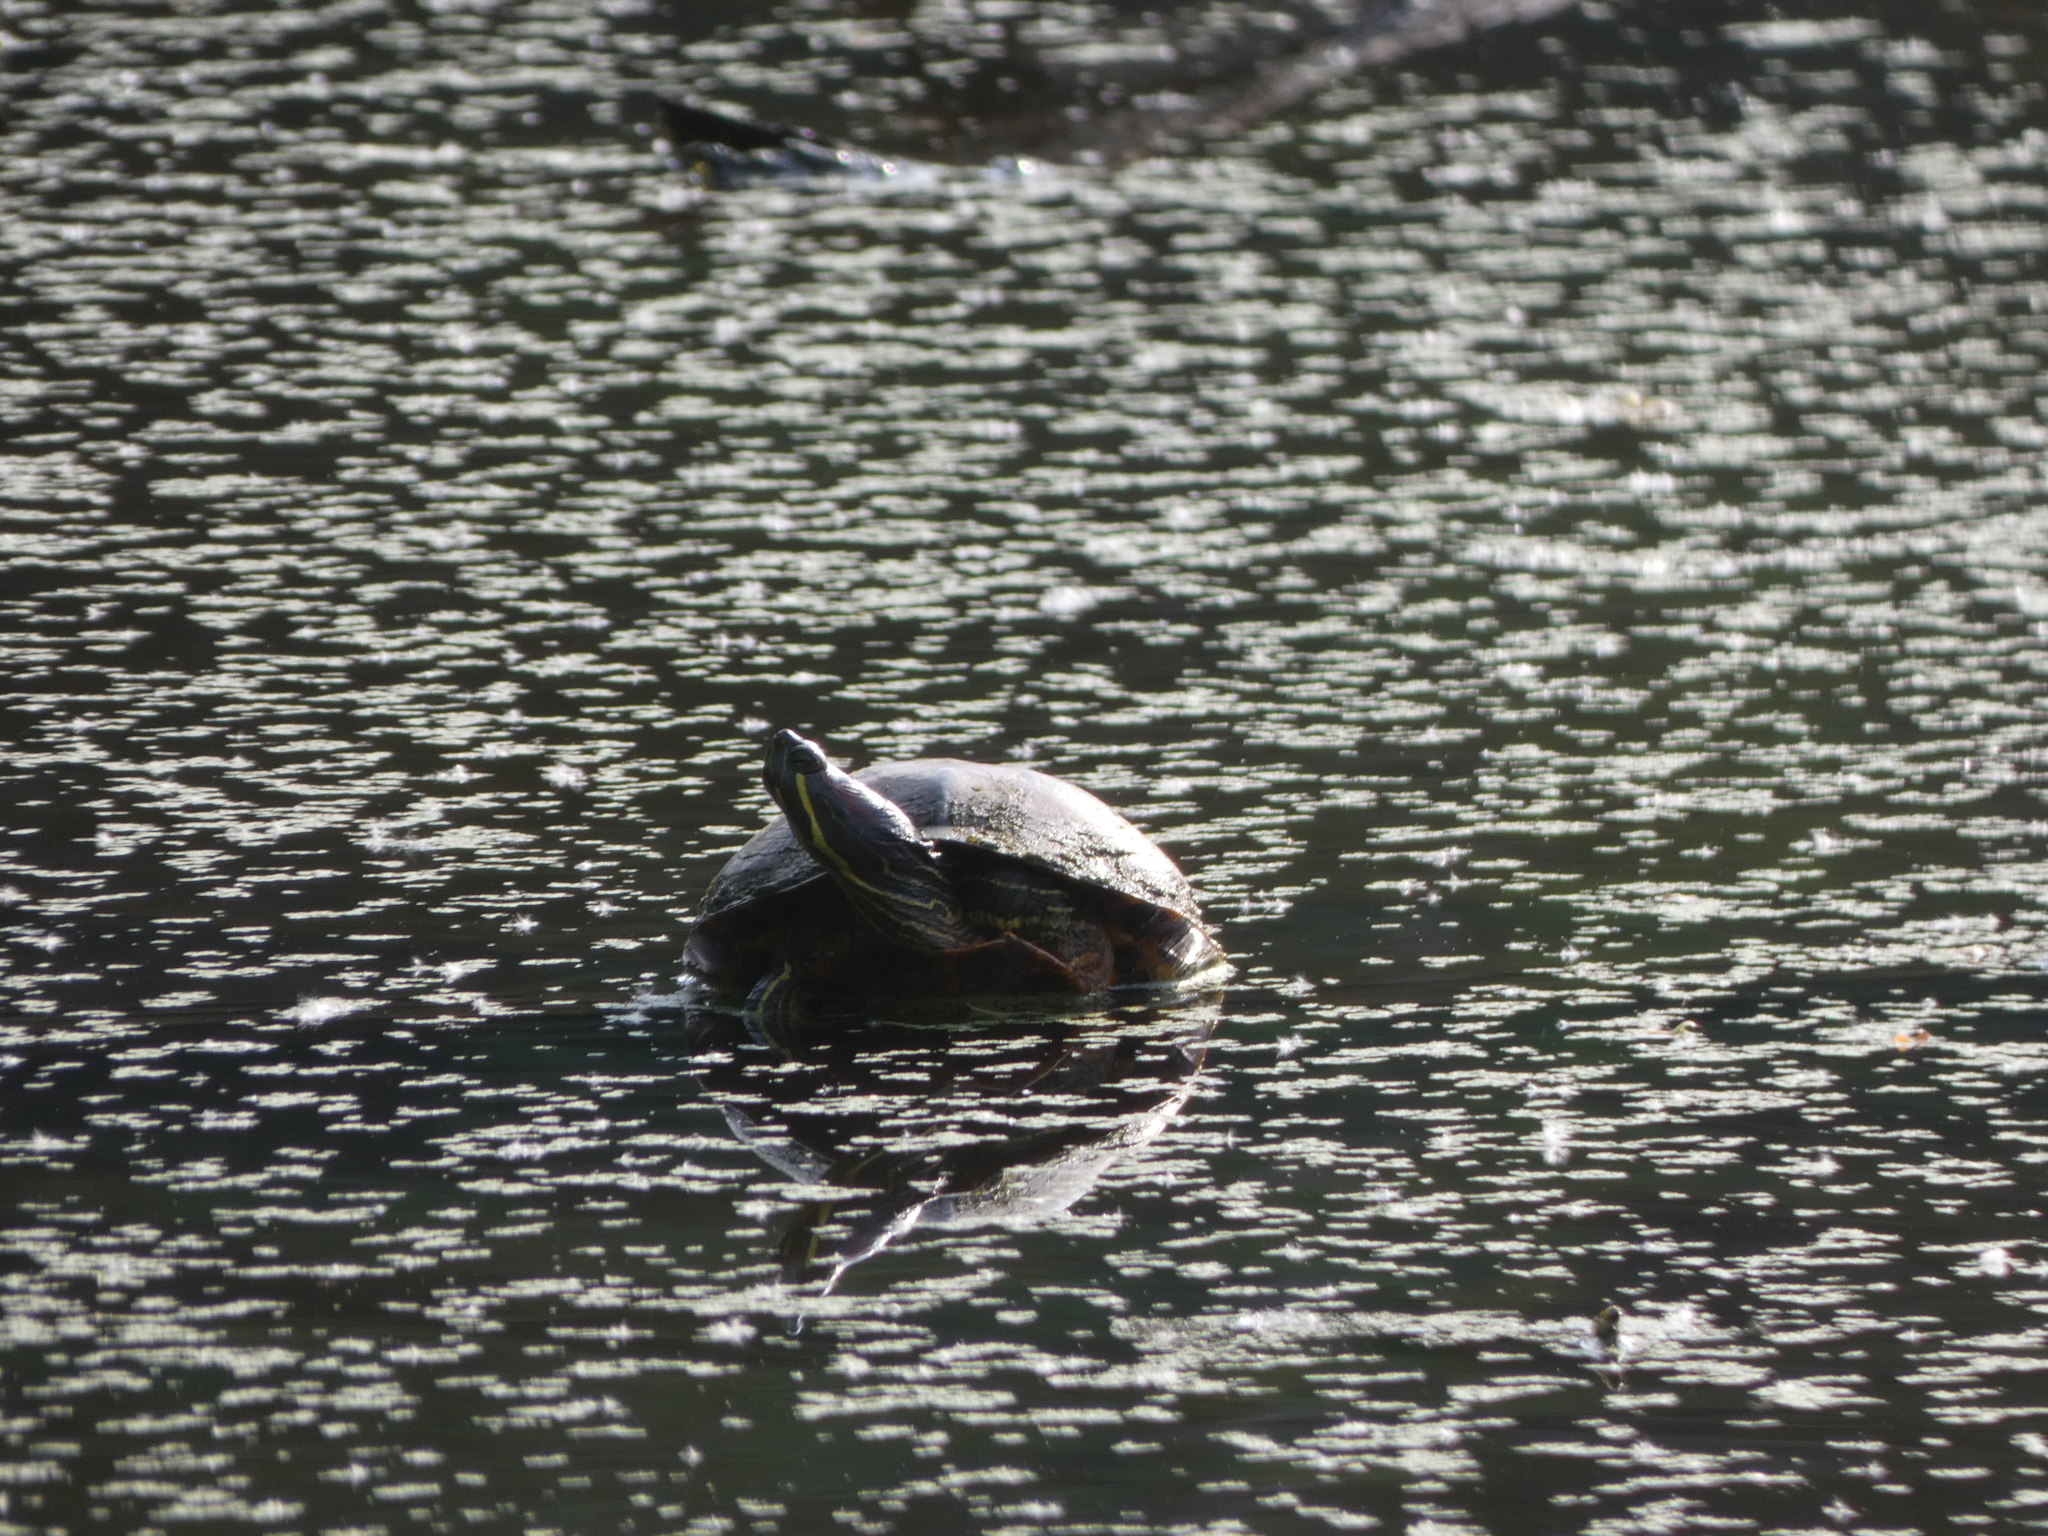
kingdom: Animalia
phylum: Chordata
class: Testudines
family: Emydidae
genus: Trachemys
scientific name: Trachemys scripta
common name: Slider
